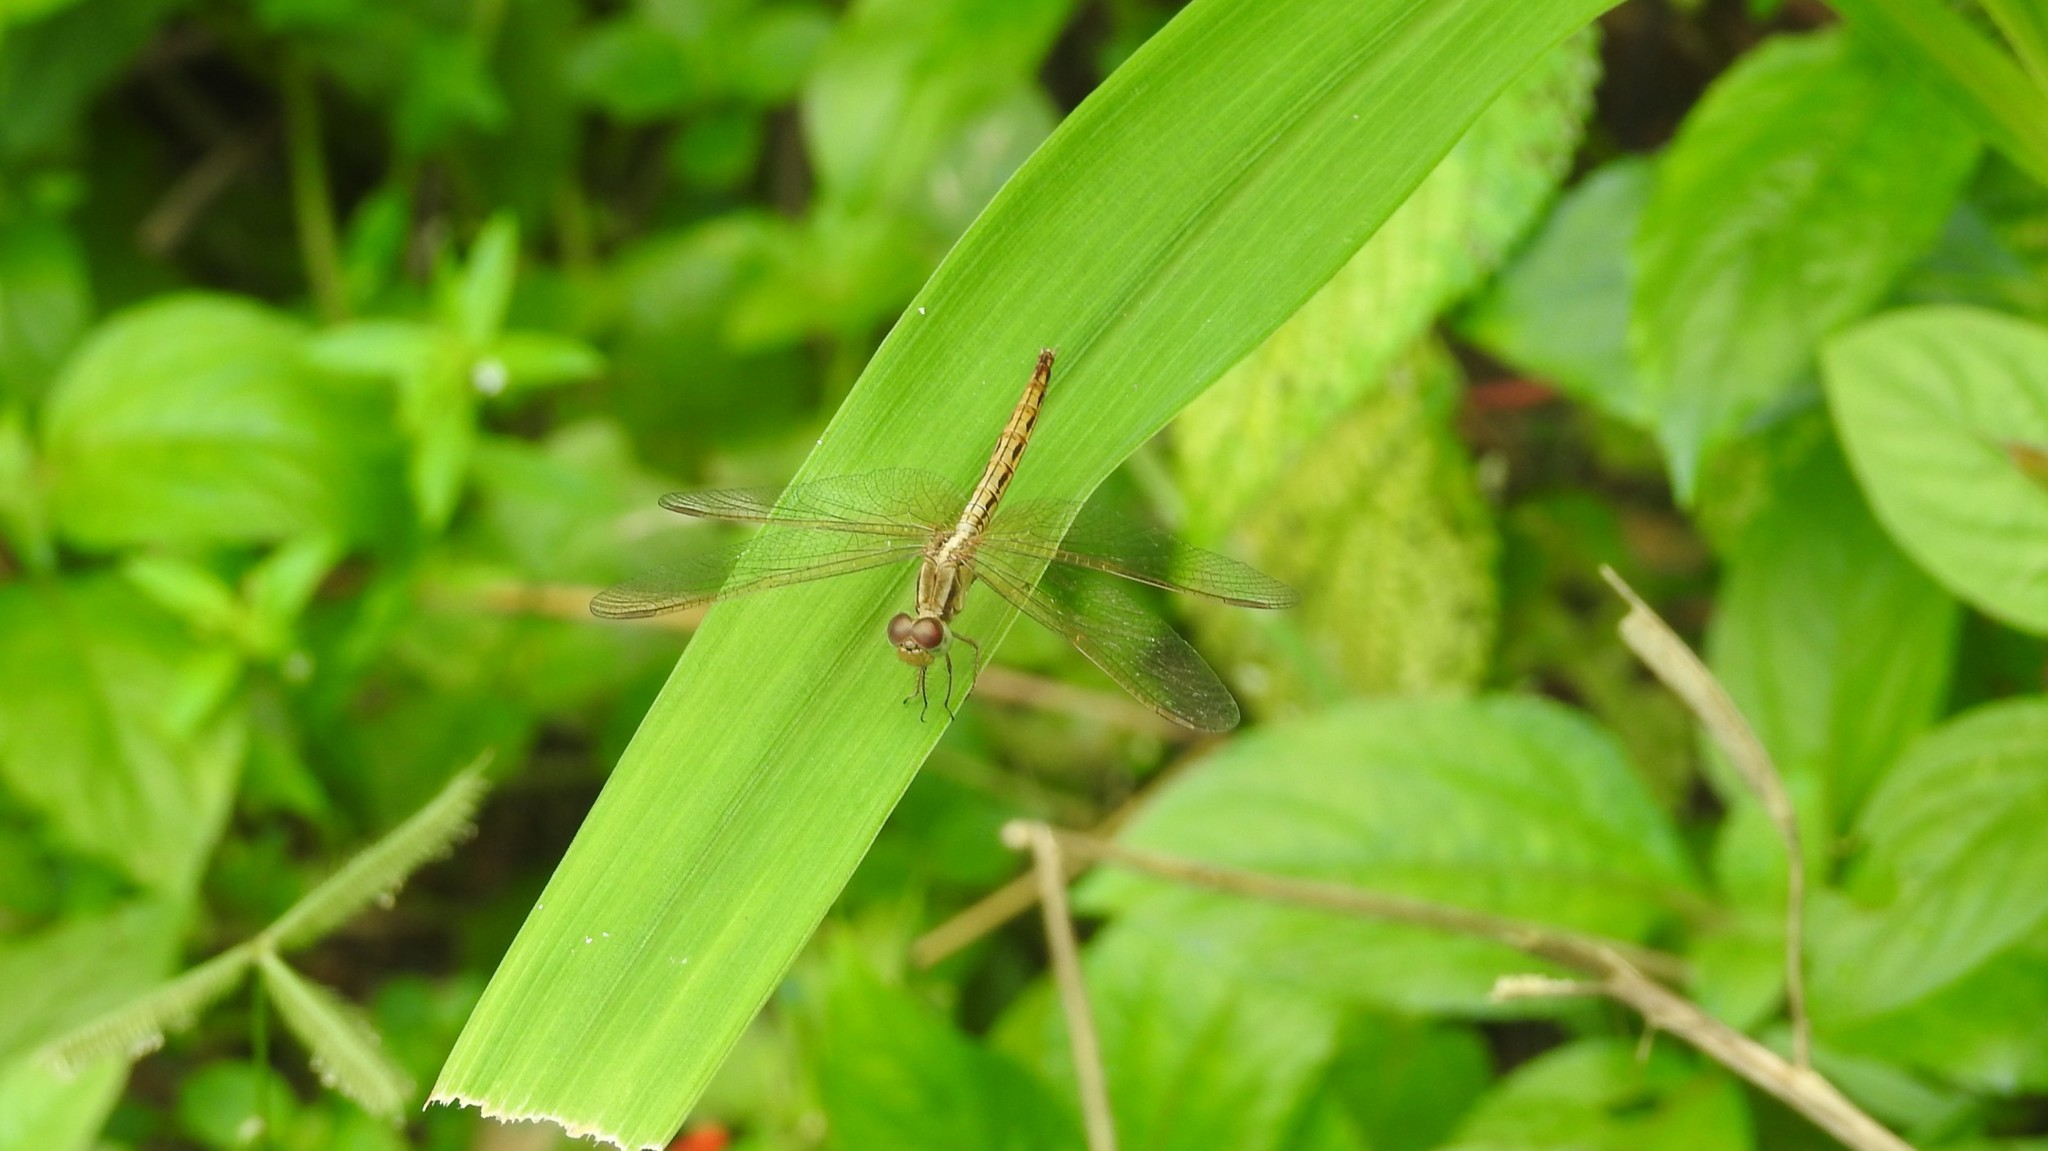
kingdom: Animalia
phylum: Arthropoda
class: Insecta
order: Odonata
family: Libellulidae
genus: Neurothemis
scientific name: Neurothemis intermedia
